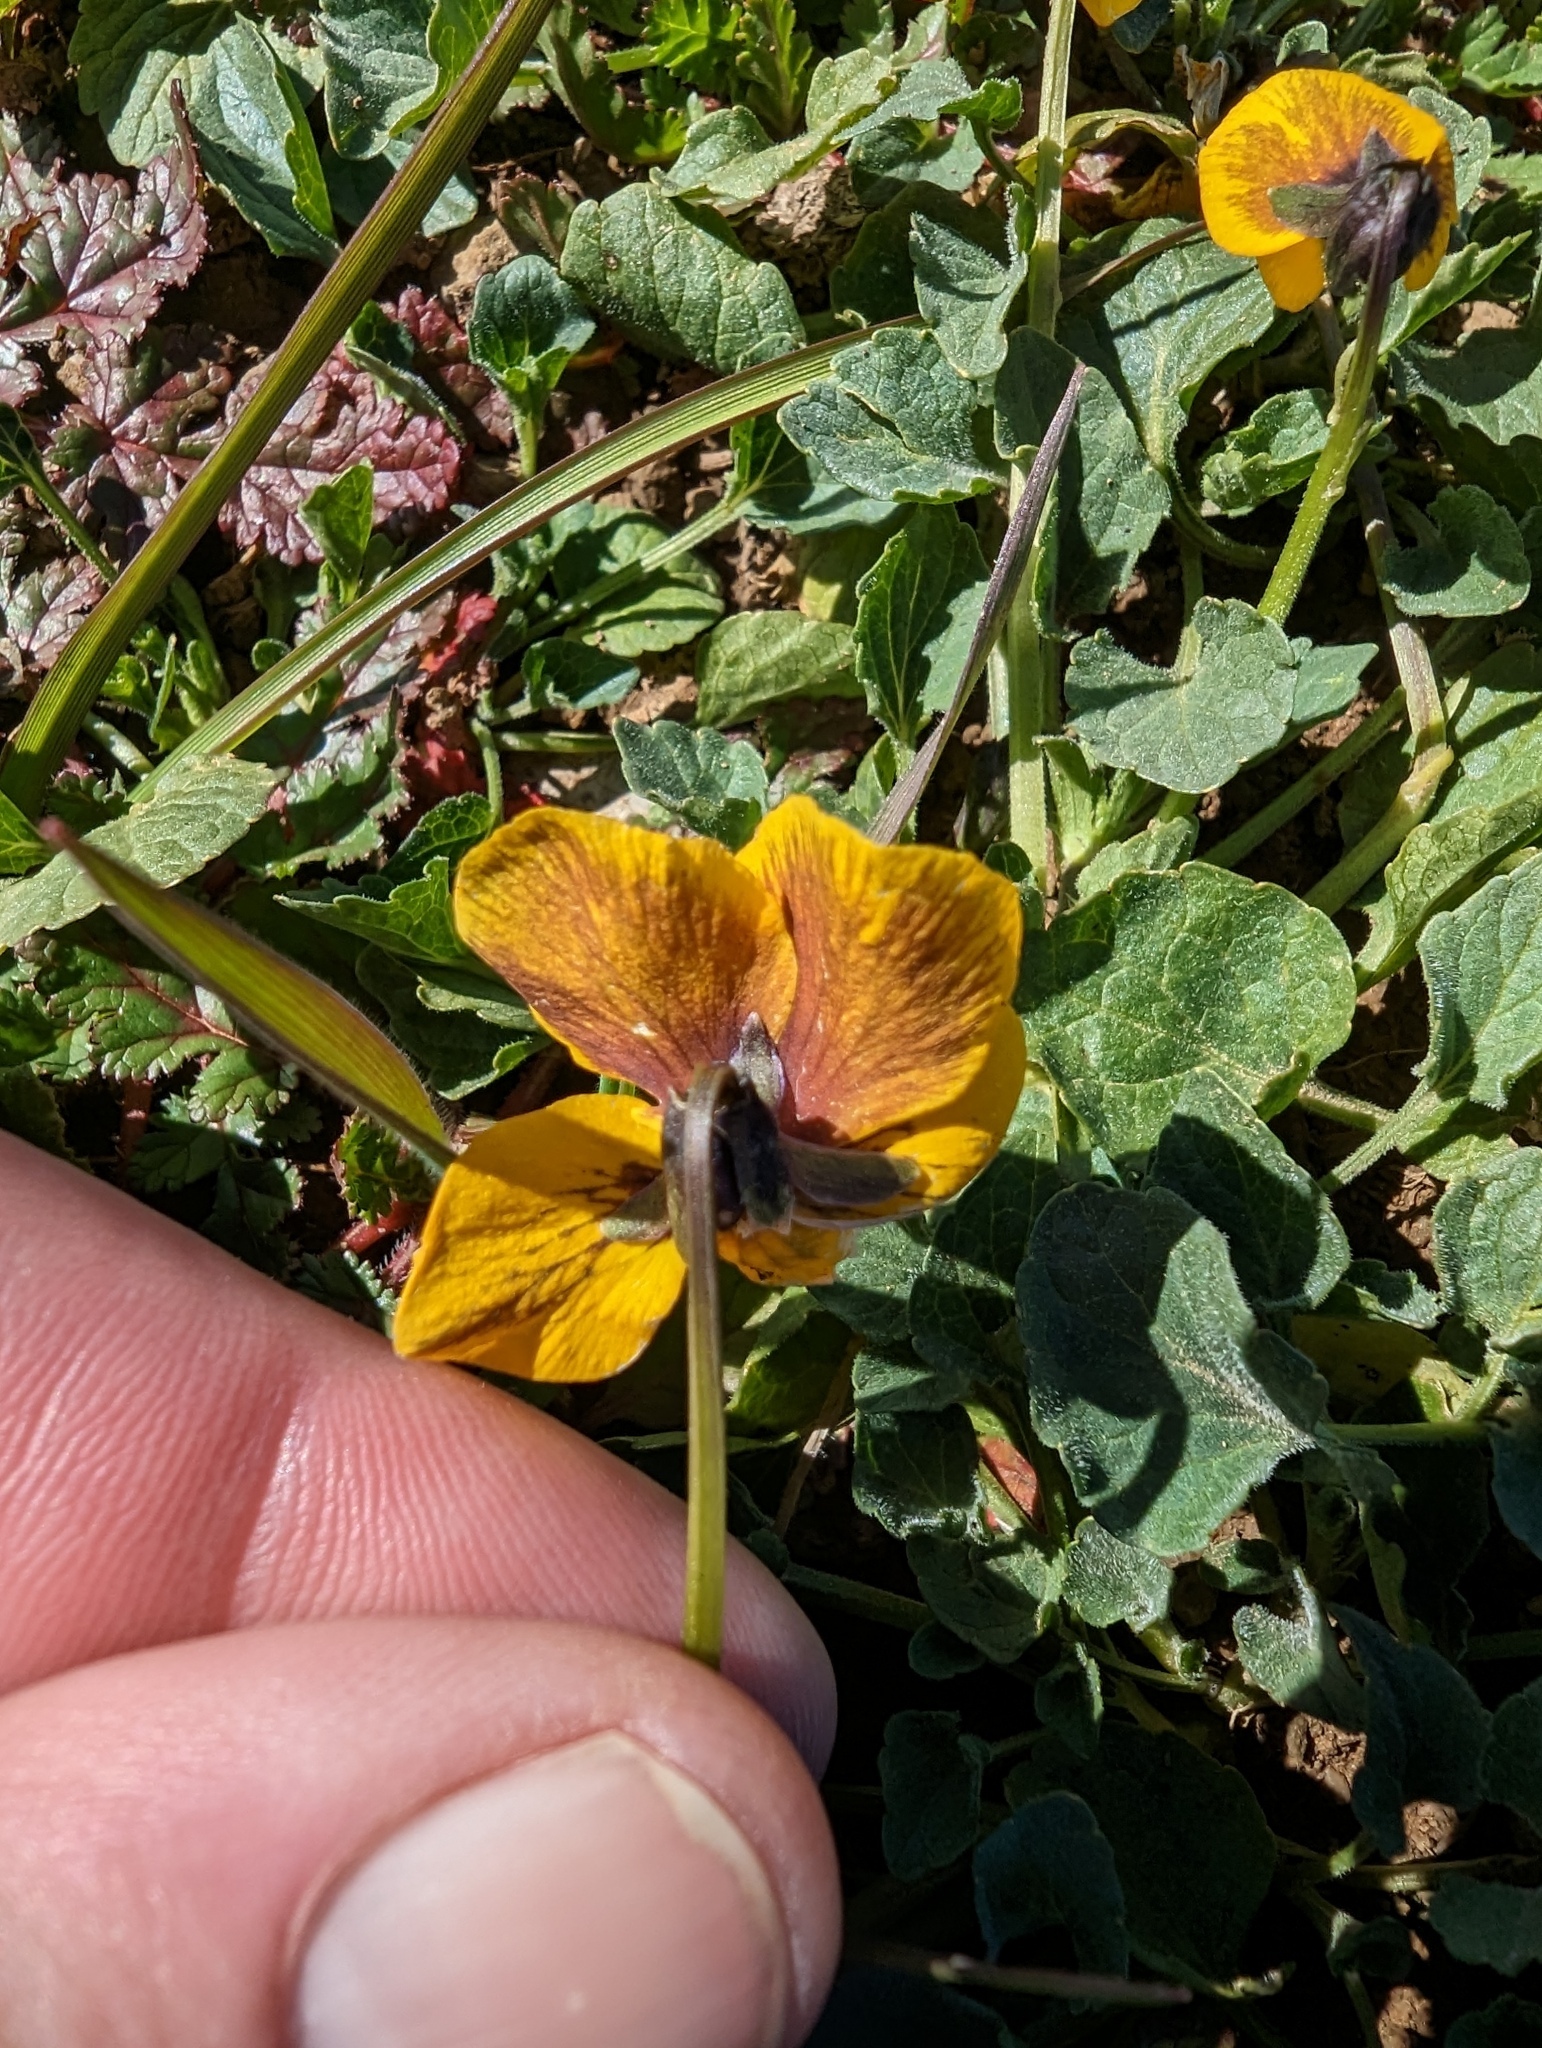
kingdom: Plantae
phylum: Tracheophyta
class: Magnoliopsida
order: Malpighiales
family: Violaceae
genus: Viola
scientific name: Viola pedunculata
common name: California golden violet
